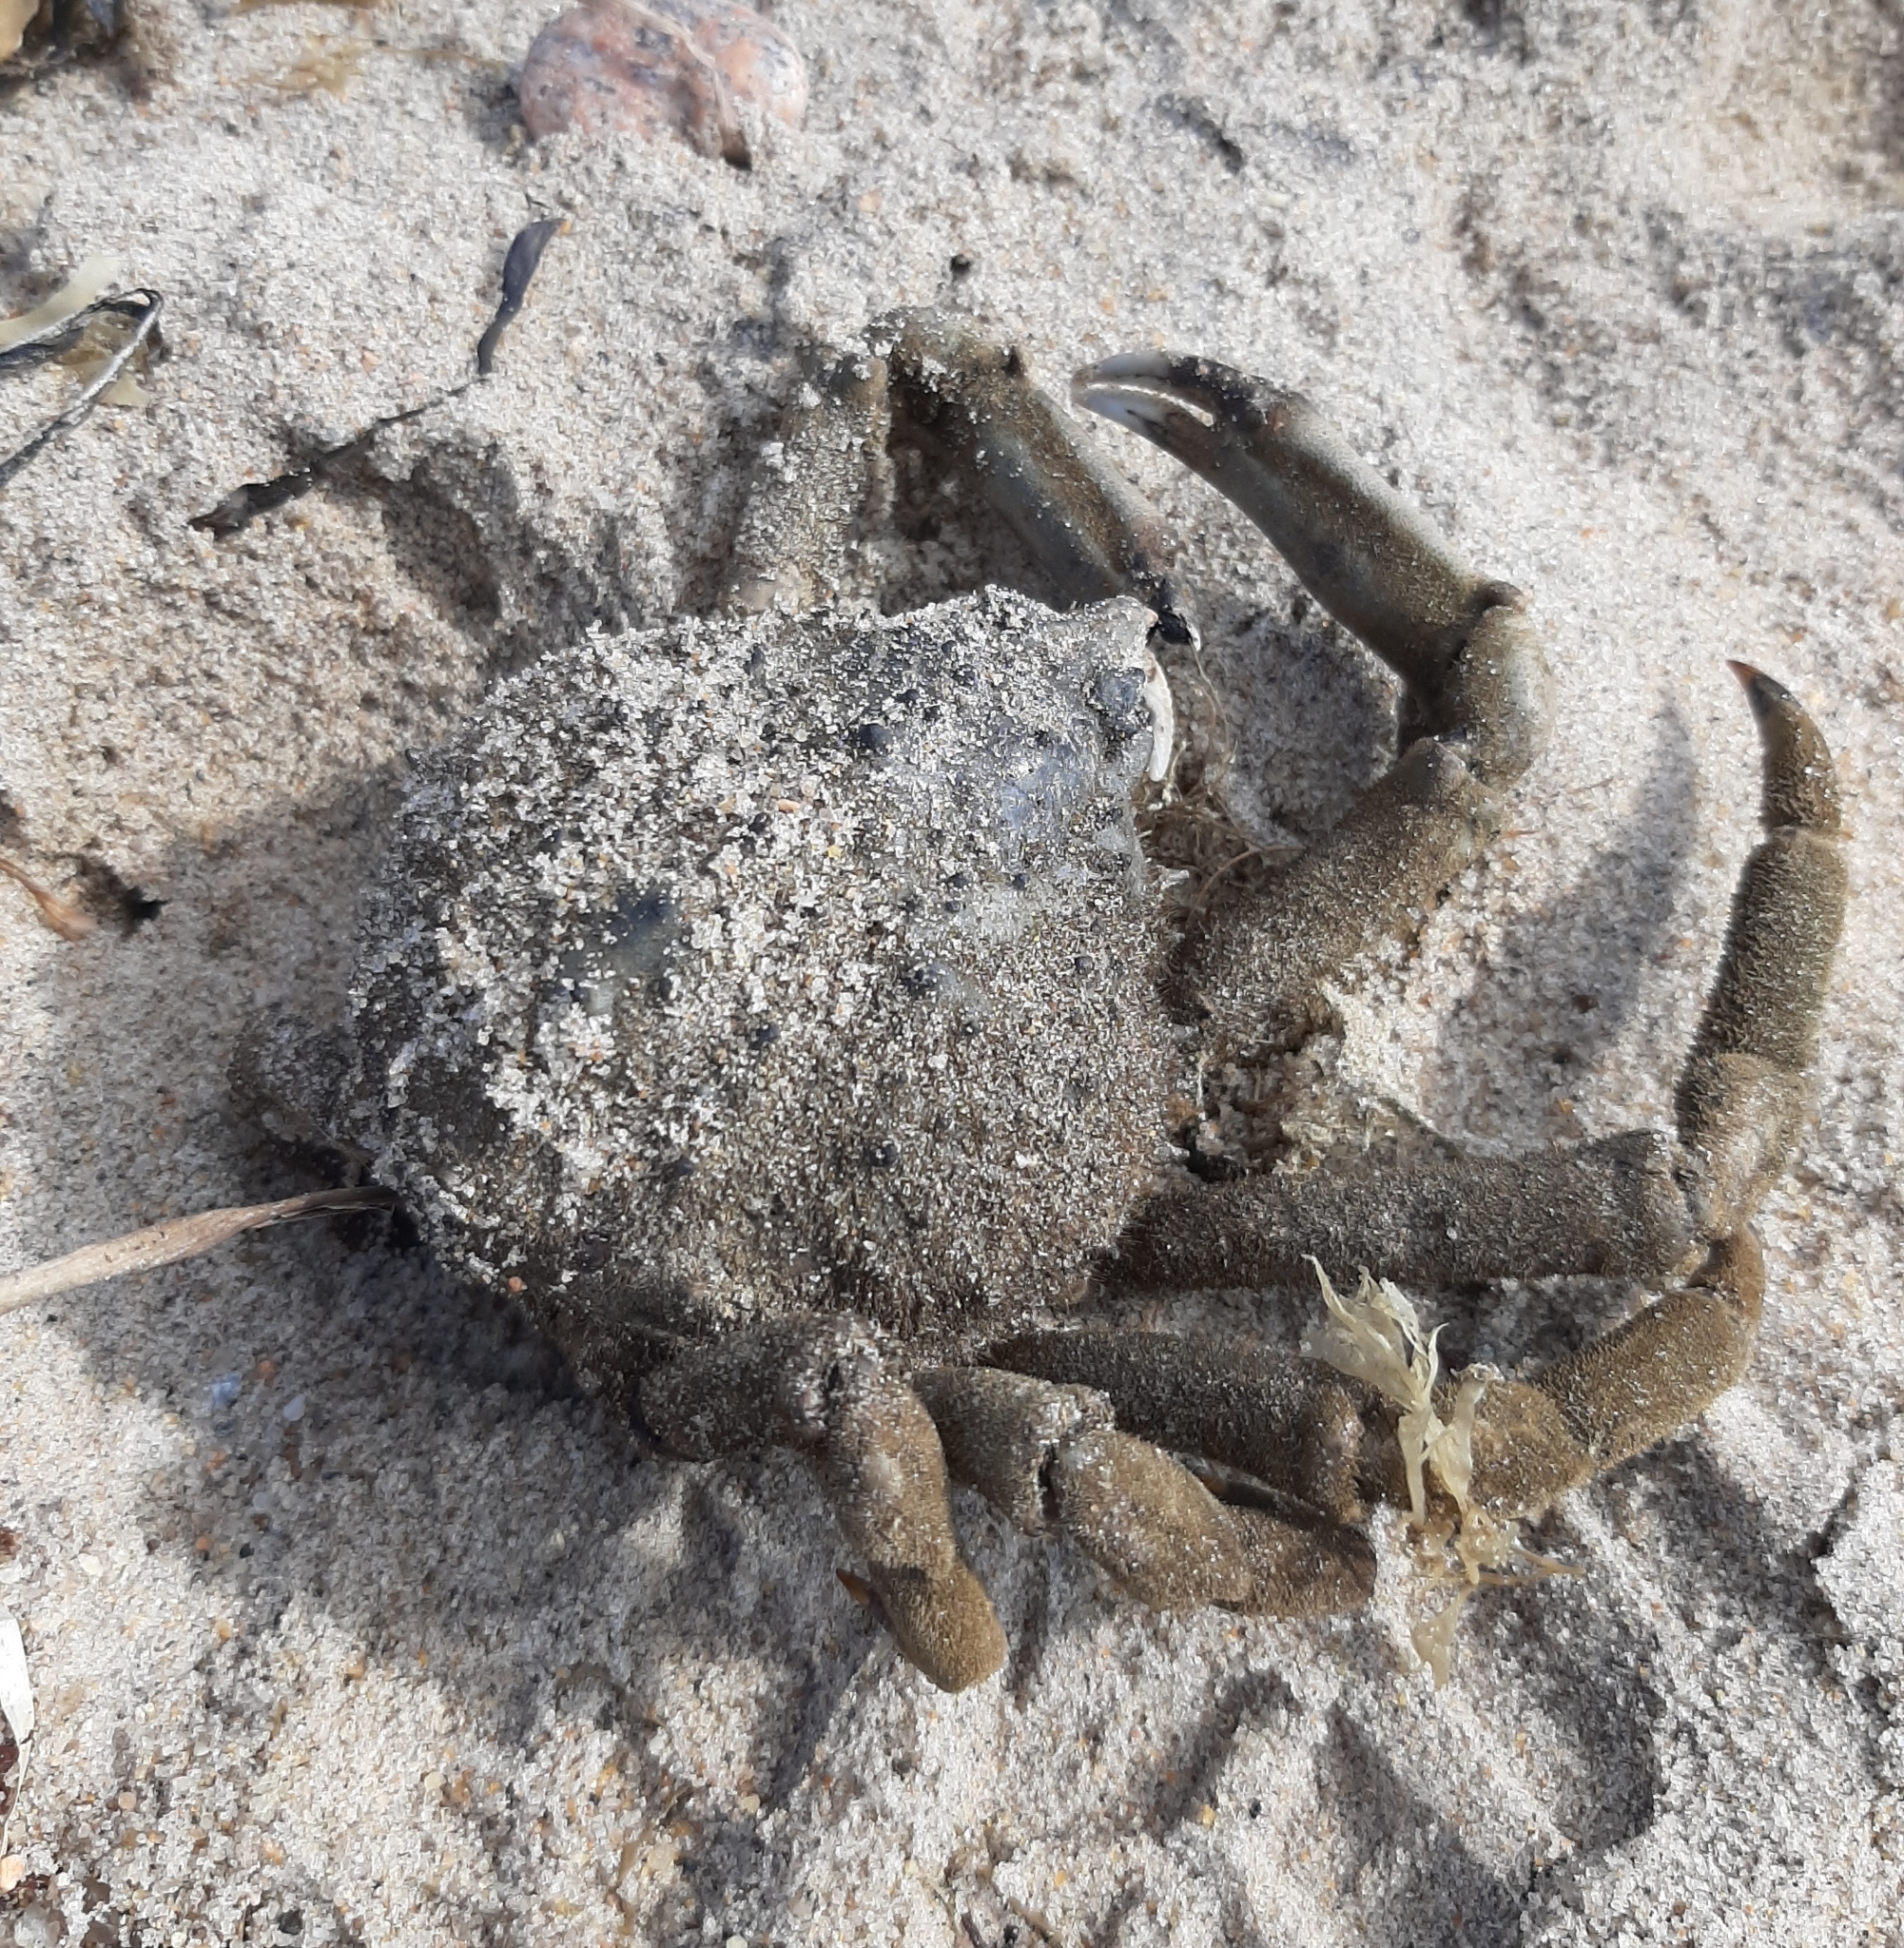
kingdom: Animalia
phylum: Arthropoda
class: Malacostraca
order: Decapoda
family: Epialtidae
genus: Libinia
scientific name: Libinia emarginata
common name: Common spider crab
